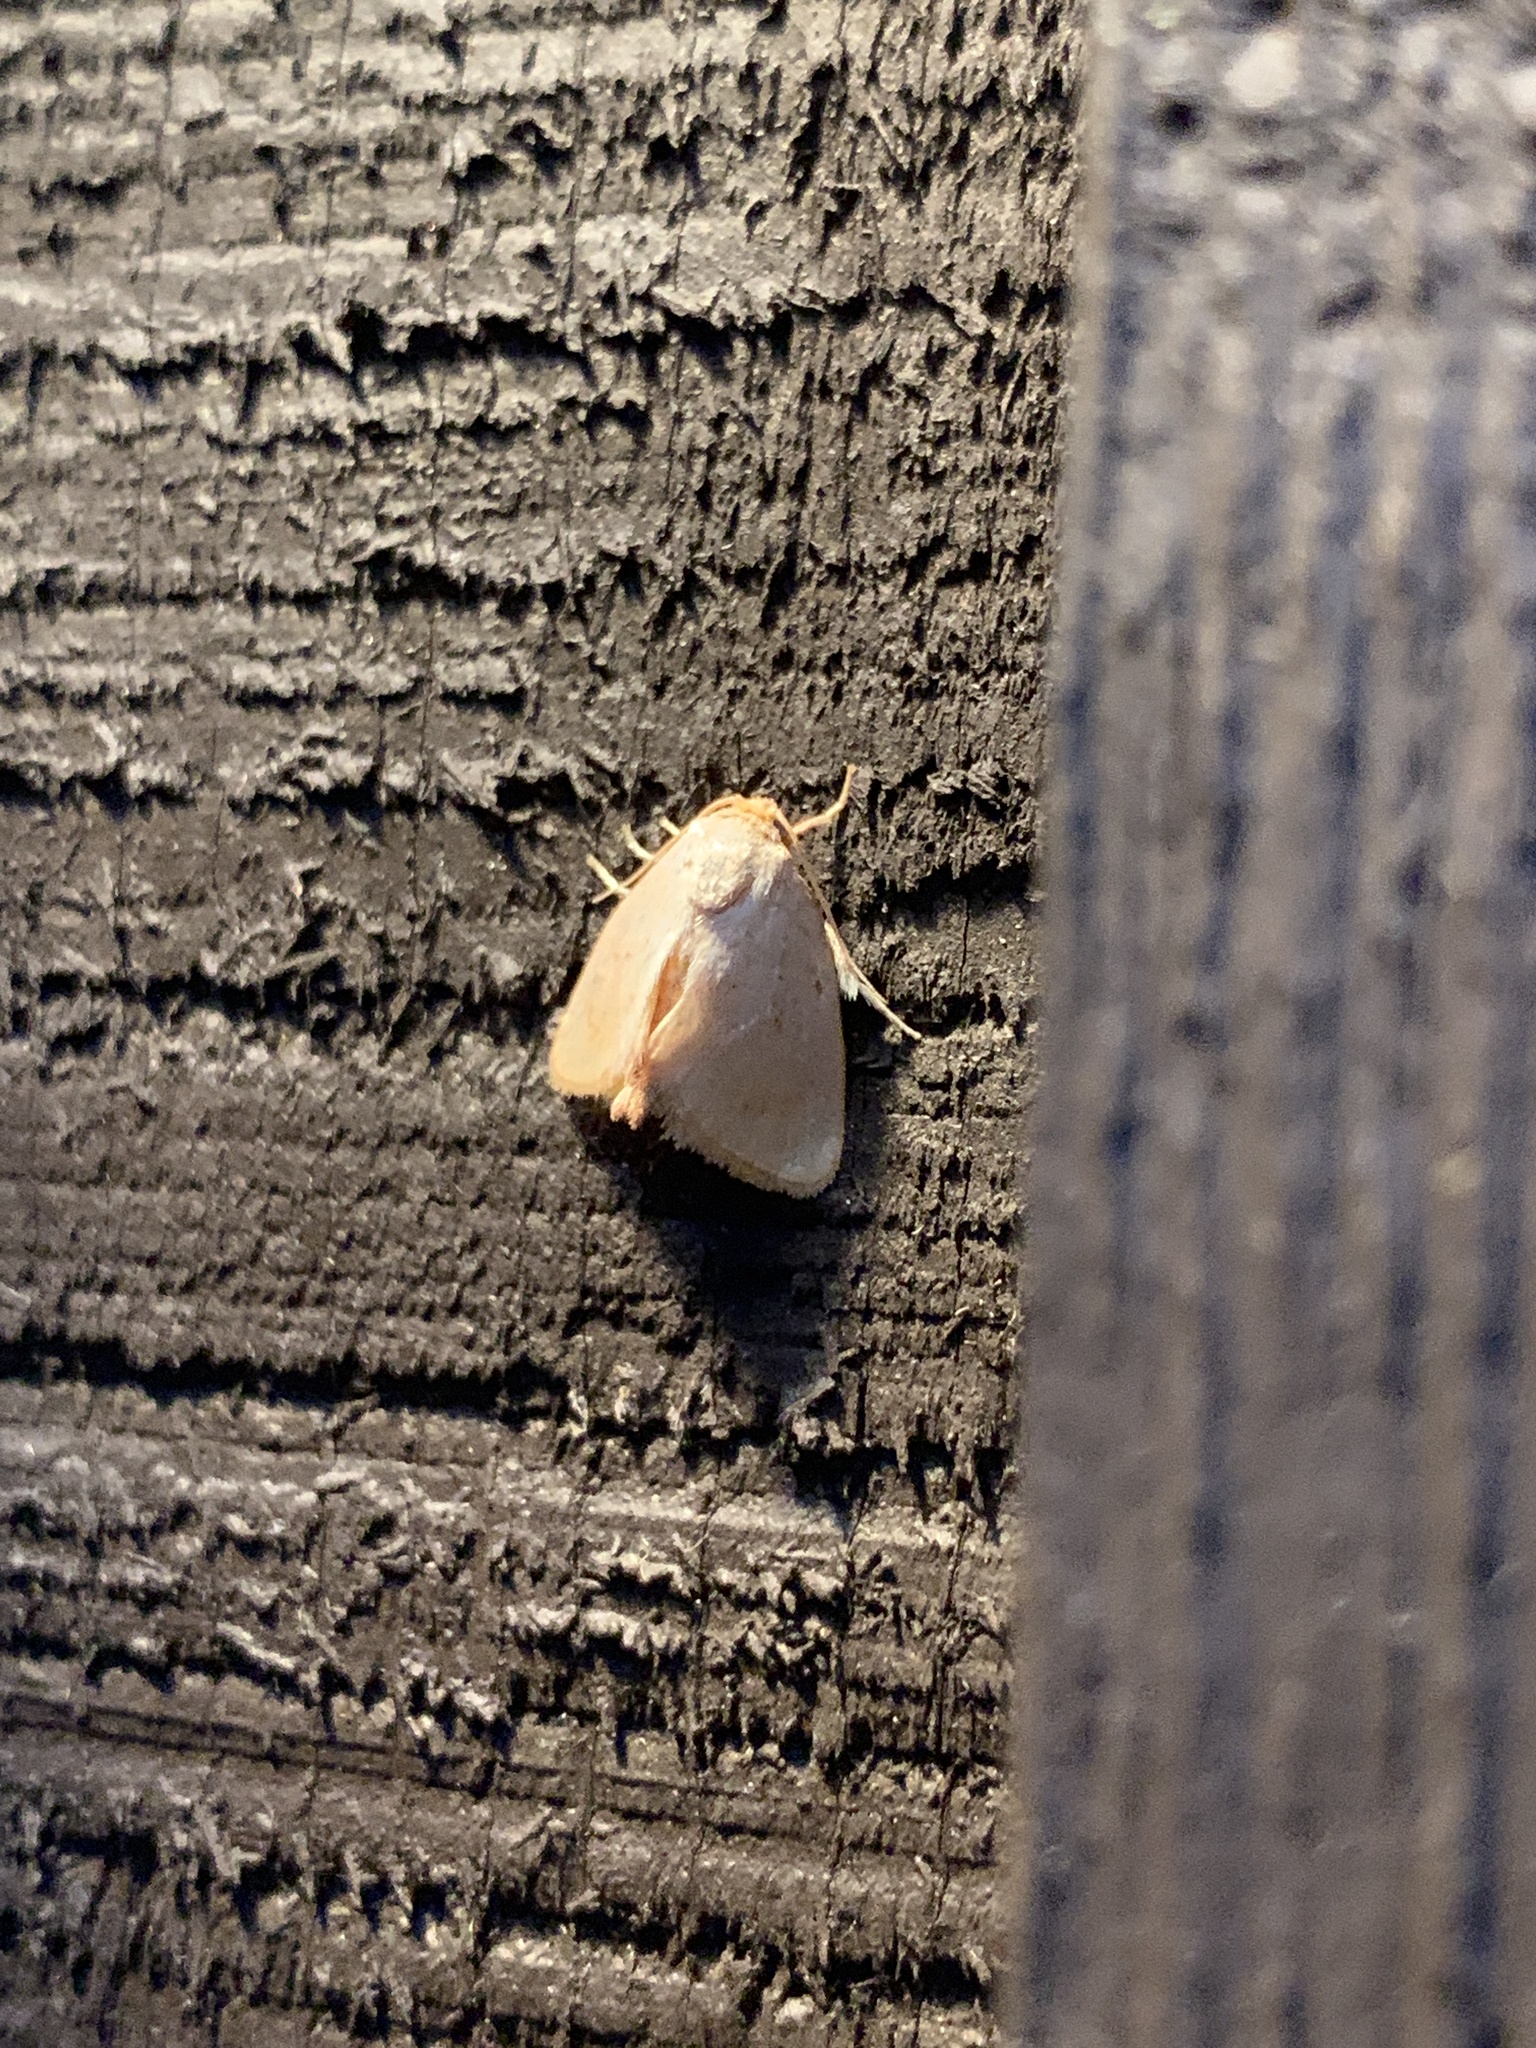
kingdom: Animalia
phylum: Arthropoda
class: Insecta
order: Lepidoptera
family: Limacodidae
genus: Tortricidia
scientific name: Tortricidia pallida
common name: Red-crossed button slug moth
